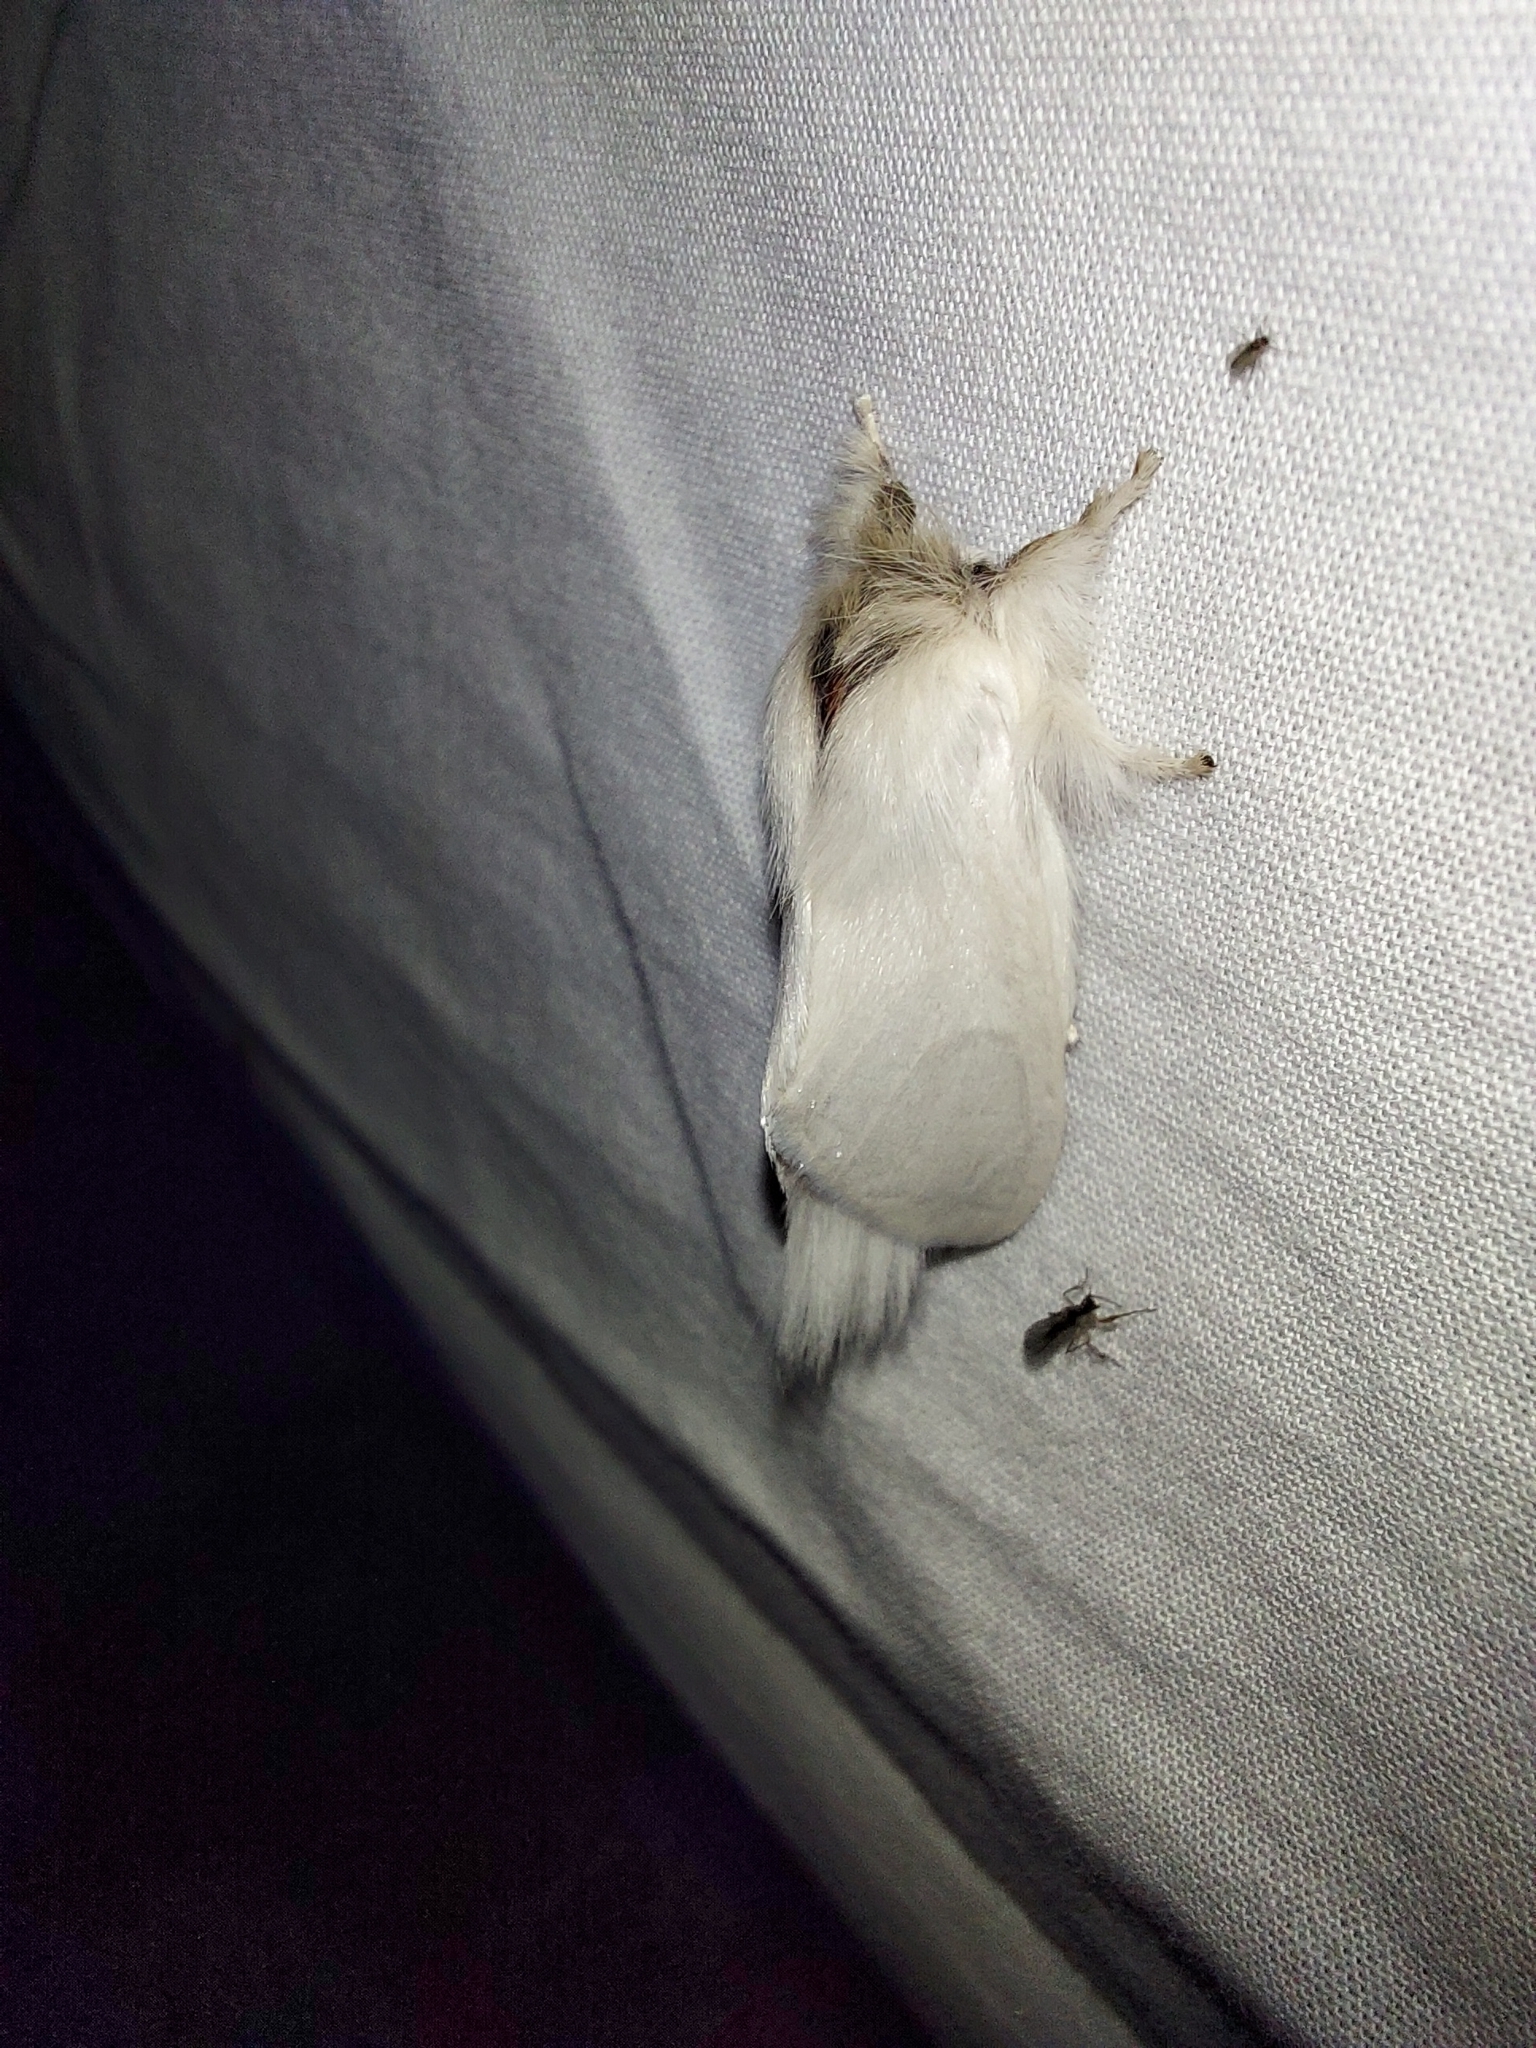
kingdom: Animalia
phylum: Arthropoda
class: Insecta
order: Lepidoptera
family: Notodontidae
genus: Trichiocercus
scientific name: Trichiocercus sparshalli
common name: Long-tailed satin
